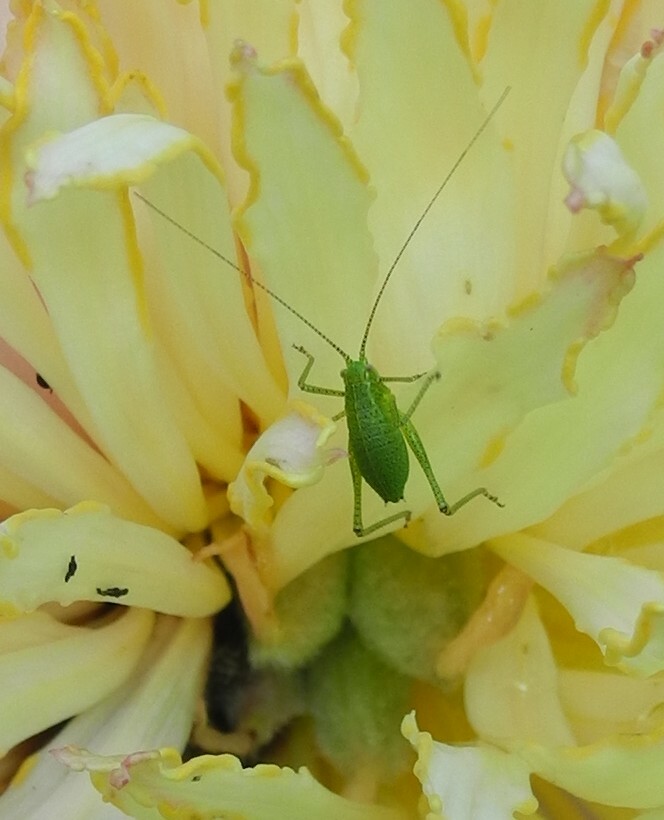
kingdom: Animalia
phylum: Arthropoda
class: Insecta
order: Orthoptera
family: Tettigoniidae
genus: Leptophyes
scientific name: Leptophyes punctatissima
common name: Speckled bush-cricket
